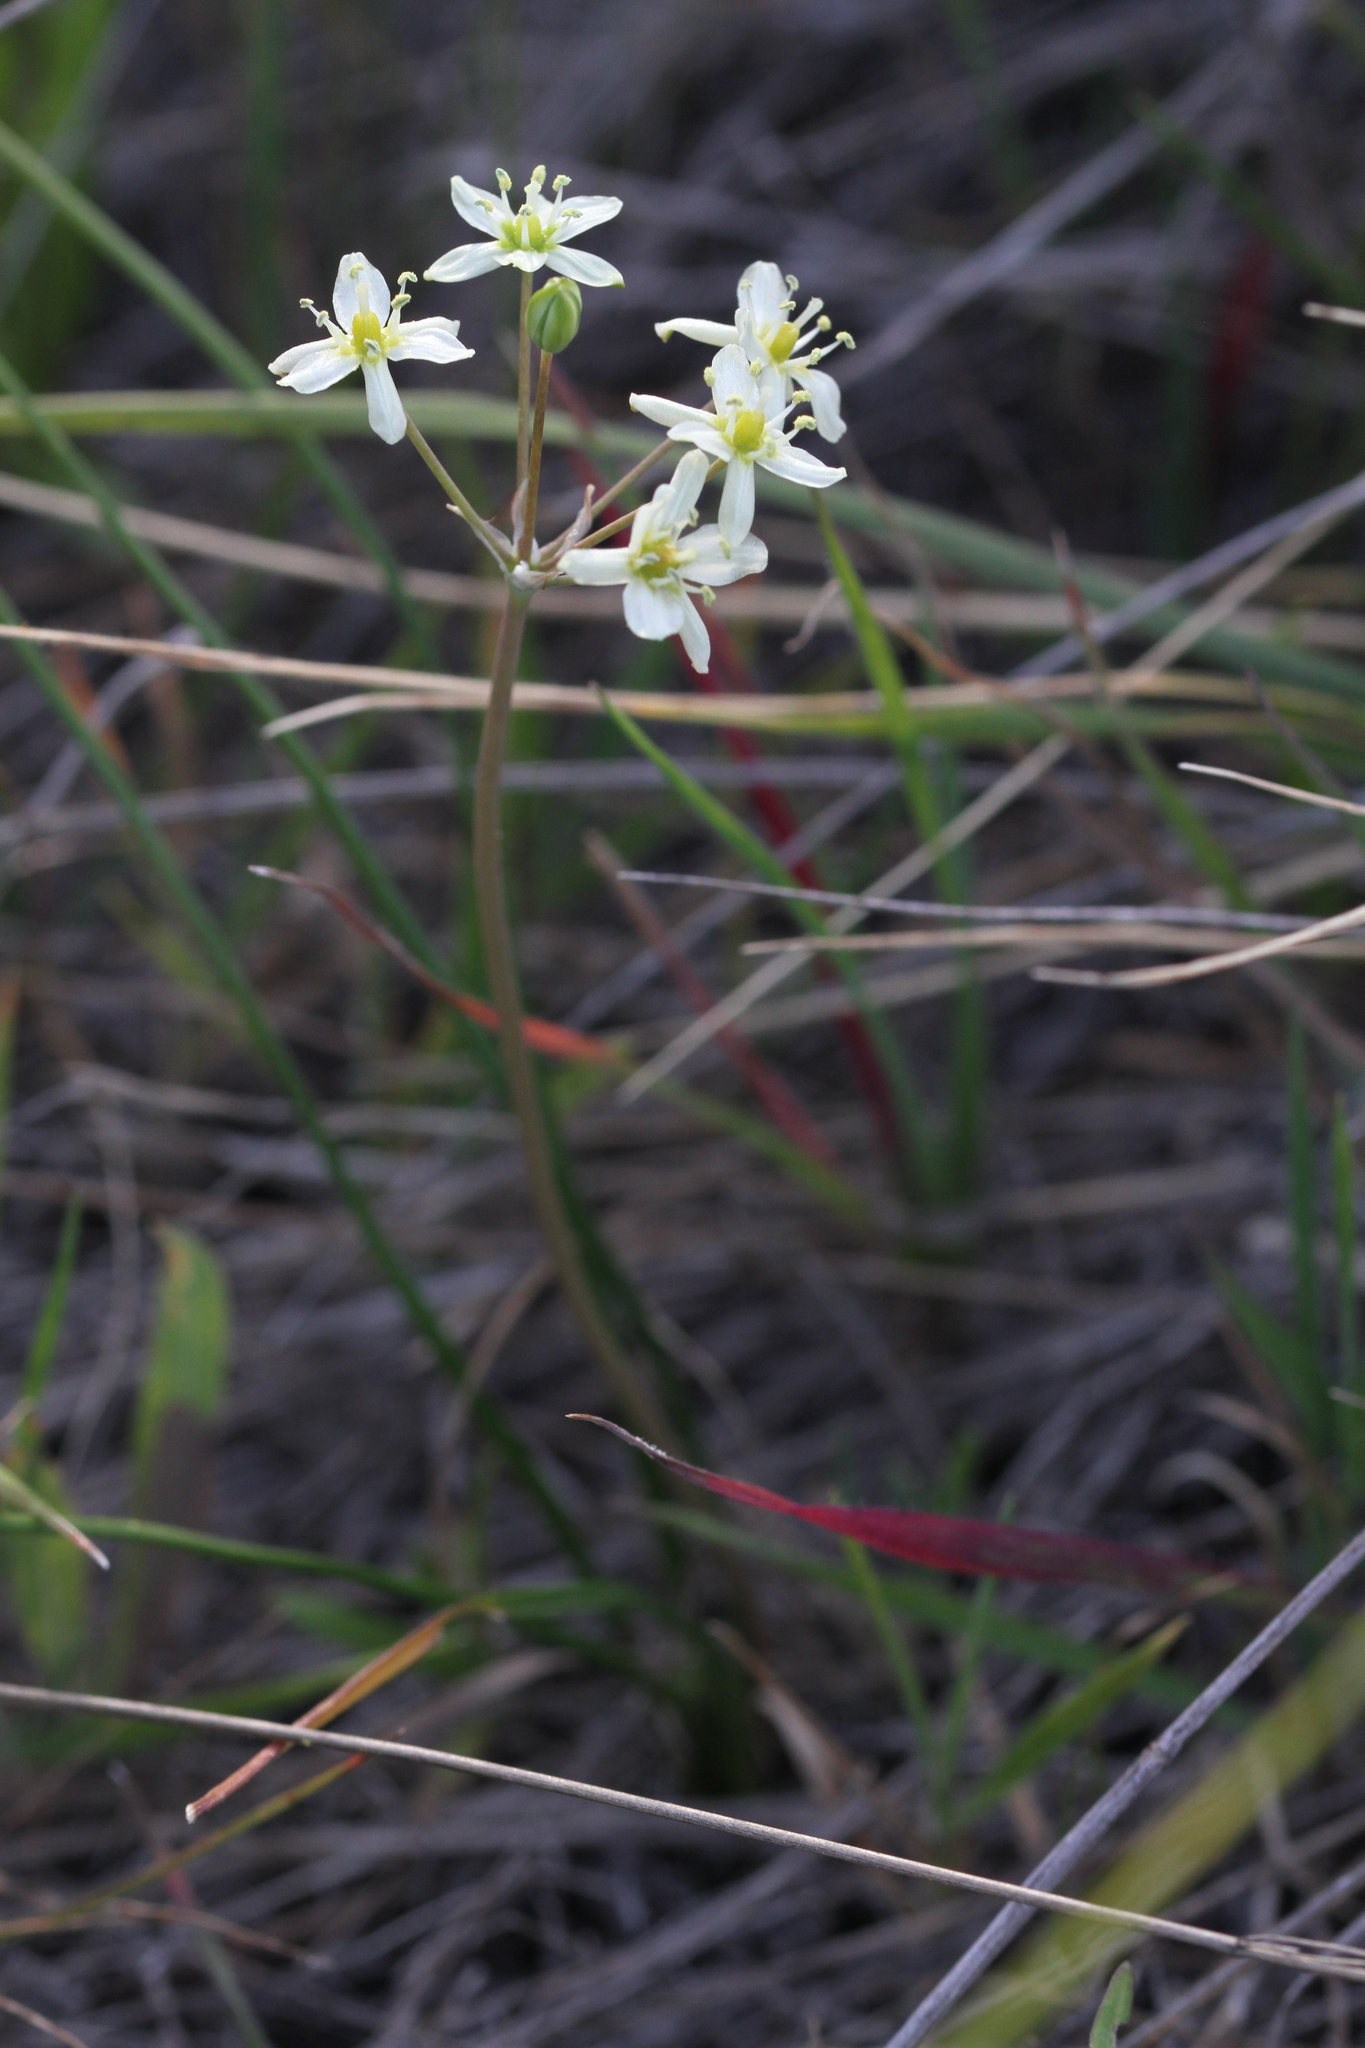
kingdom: Plantae
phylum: Tracheophyta
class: Liliopsida
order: Asparagales
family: Asparagaceae
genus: Muilla
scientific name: Muilla maritima
